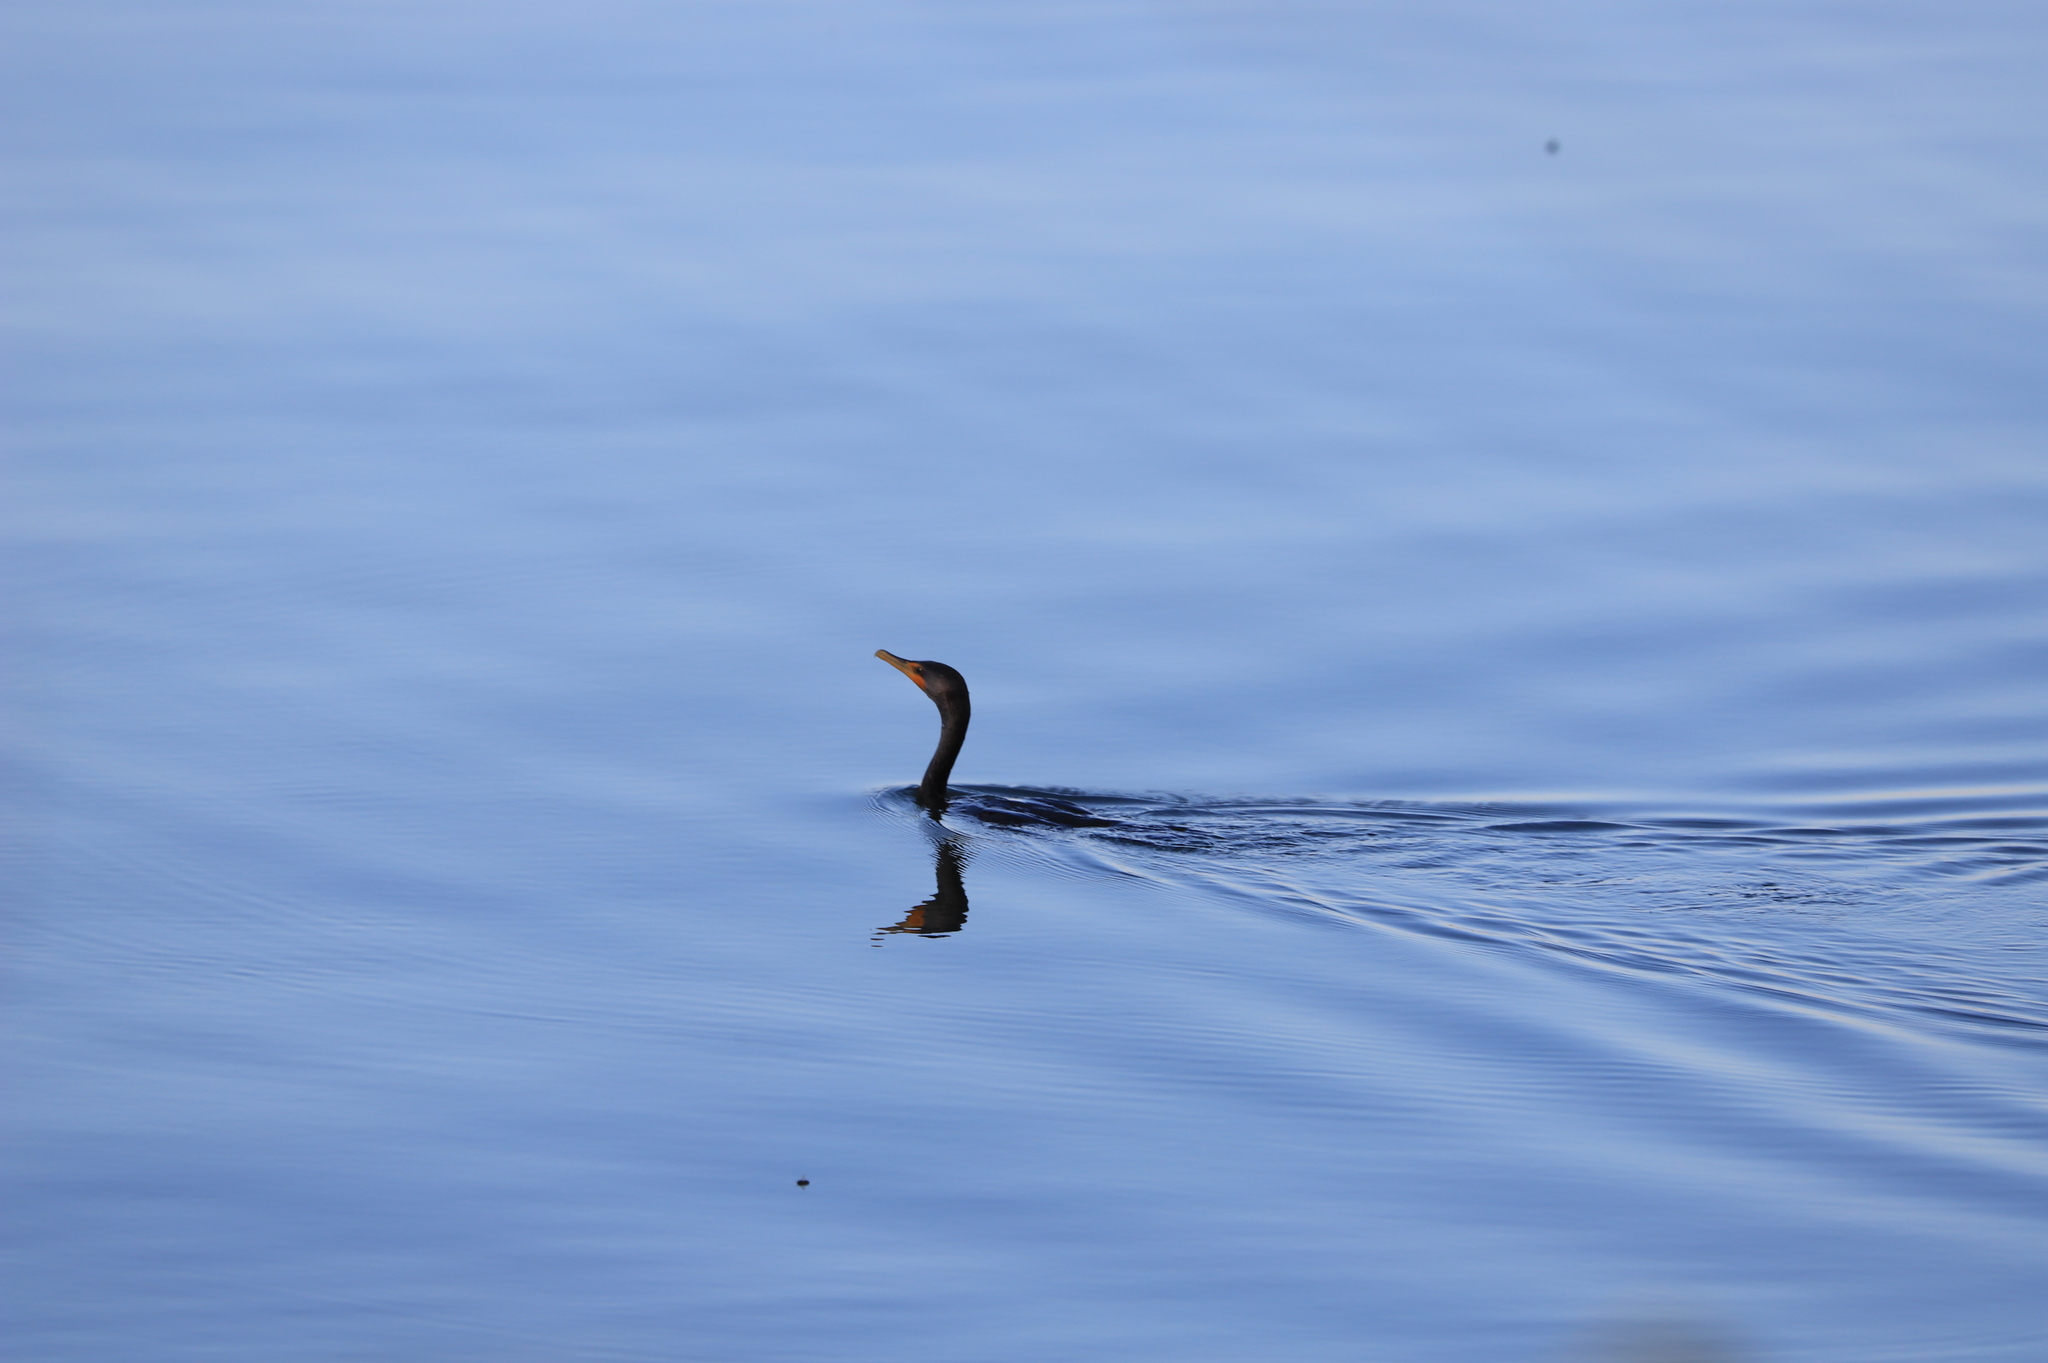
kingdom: Animalia
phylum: Chordata
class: Aves
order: Suliformes
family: Phalacrocoracidae
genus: Phalacrocorax
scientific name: Phalacrocorax auritus
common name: Double-crested cormorant
